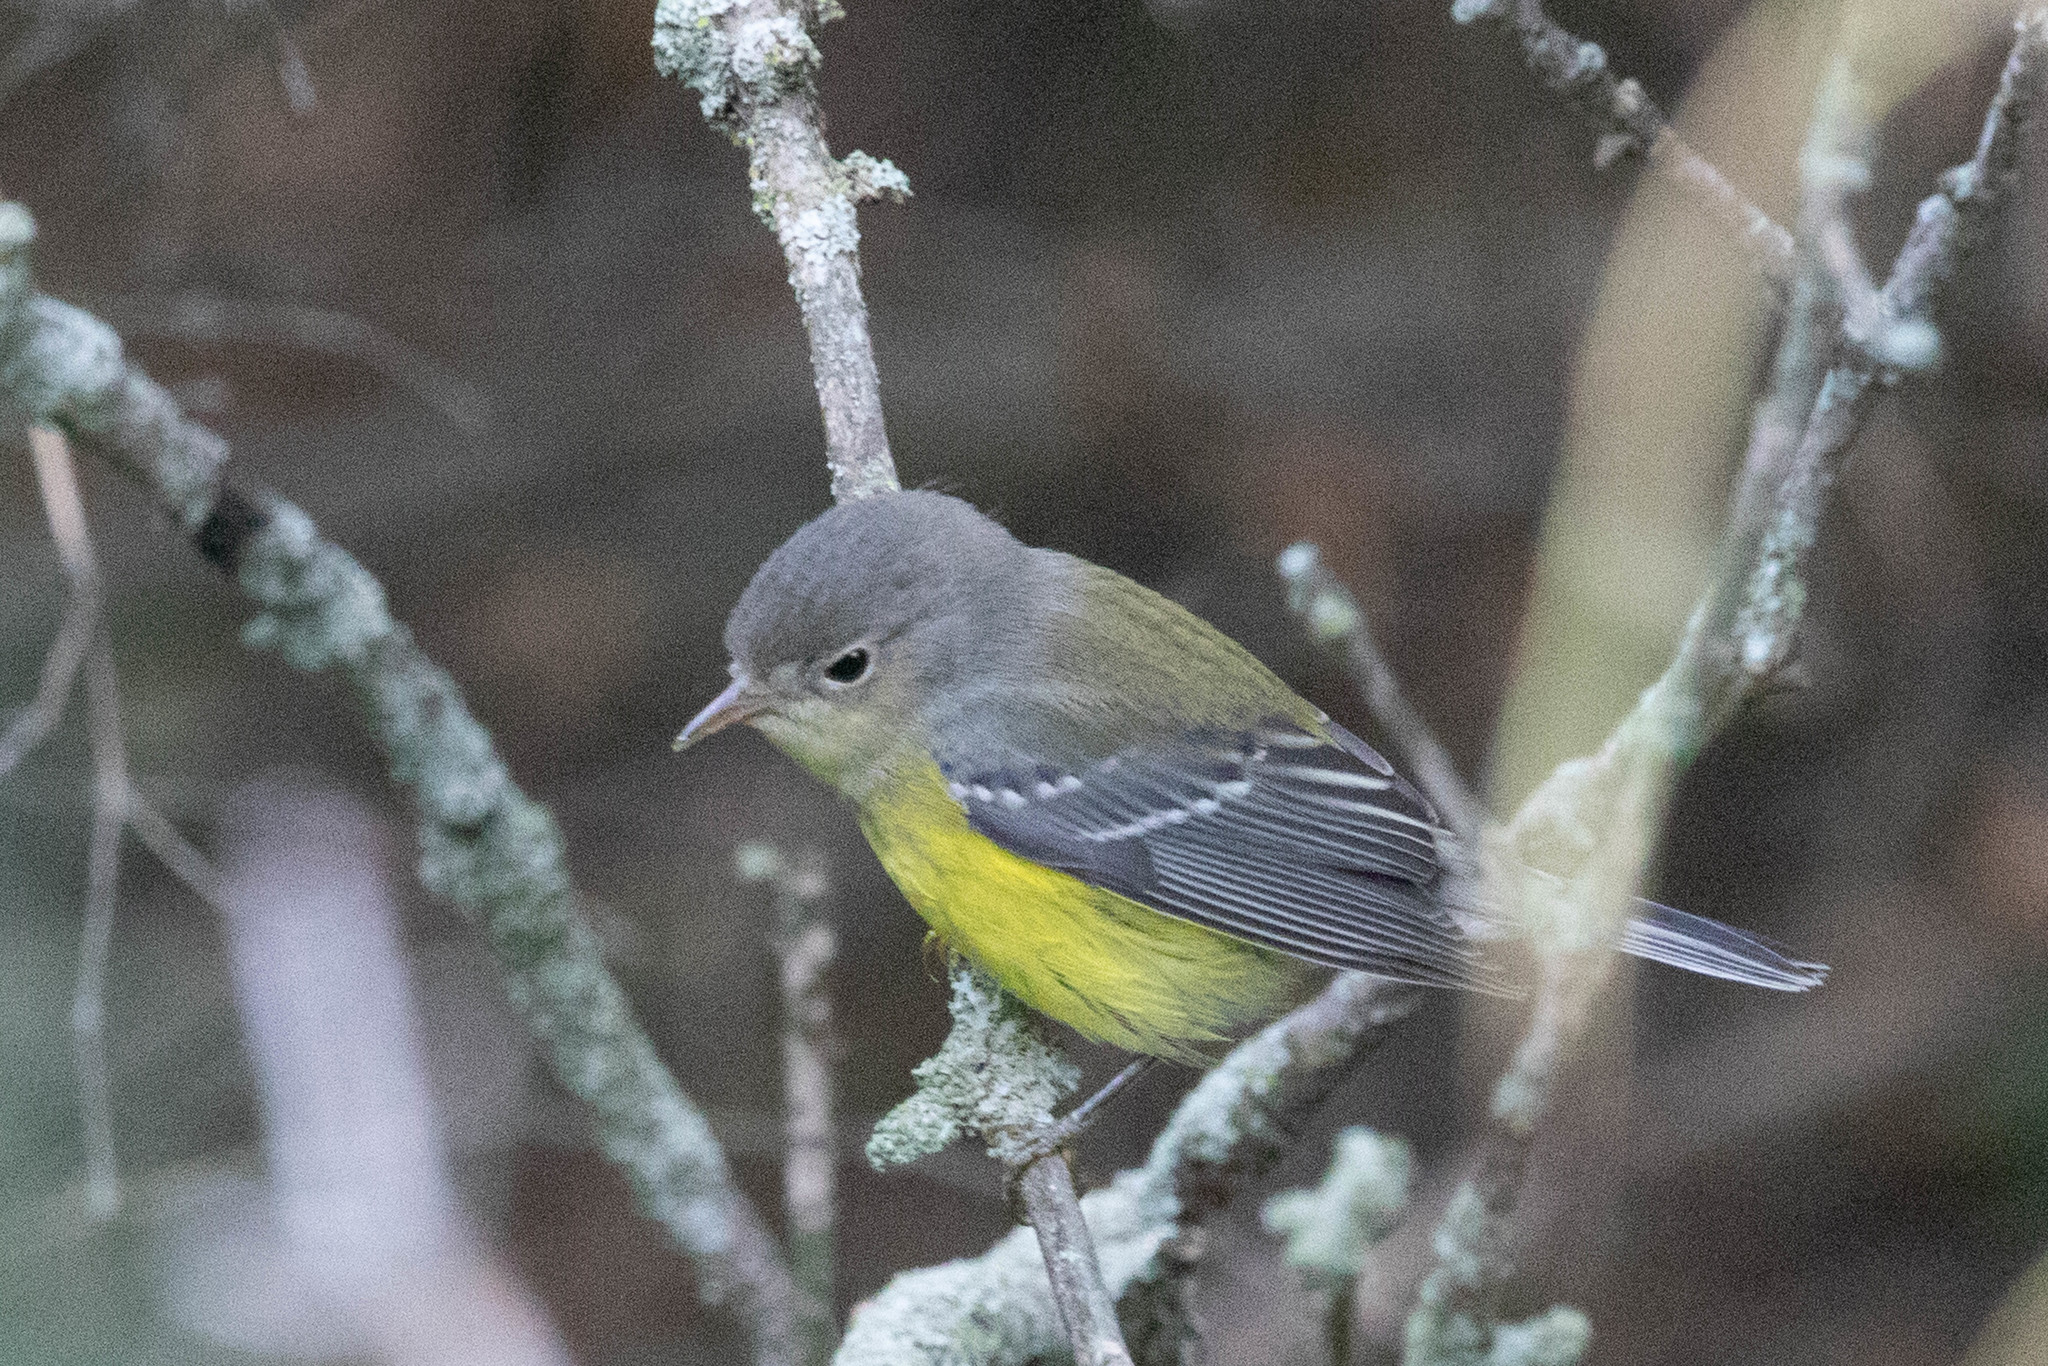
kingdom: Animalia
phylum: Chordata
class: Aves
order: Passeriformes
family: Parulidae
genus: Setophaga
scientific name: Setophaga magnolia
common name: Magnolia warbler
